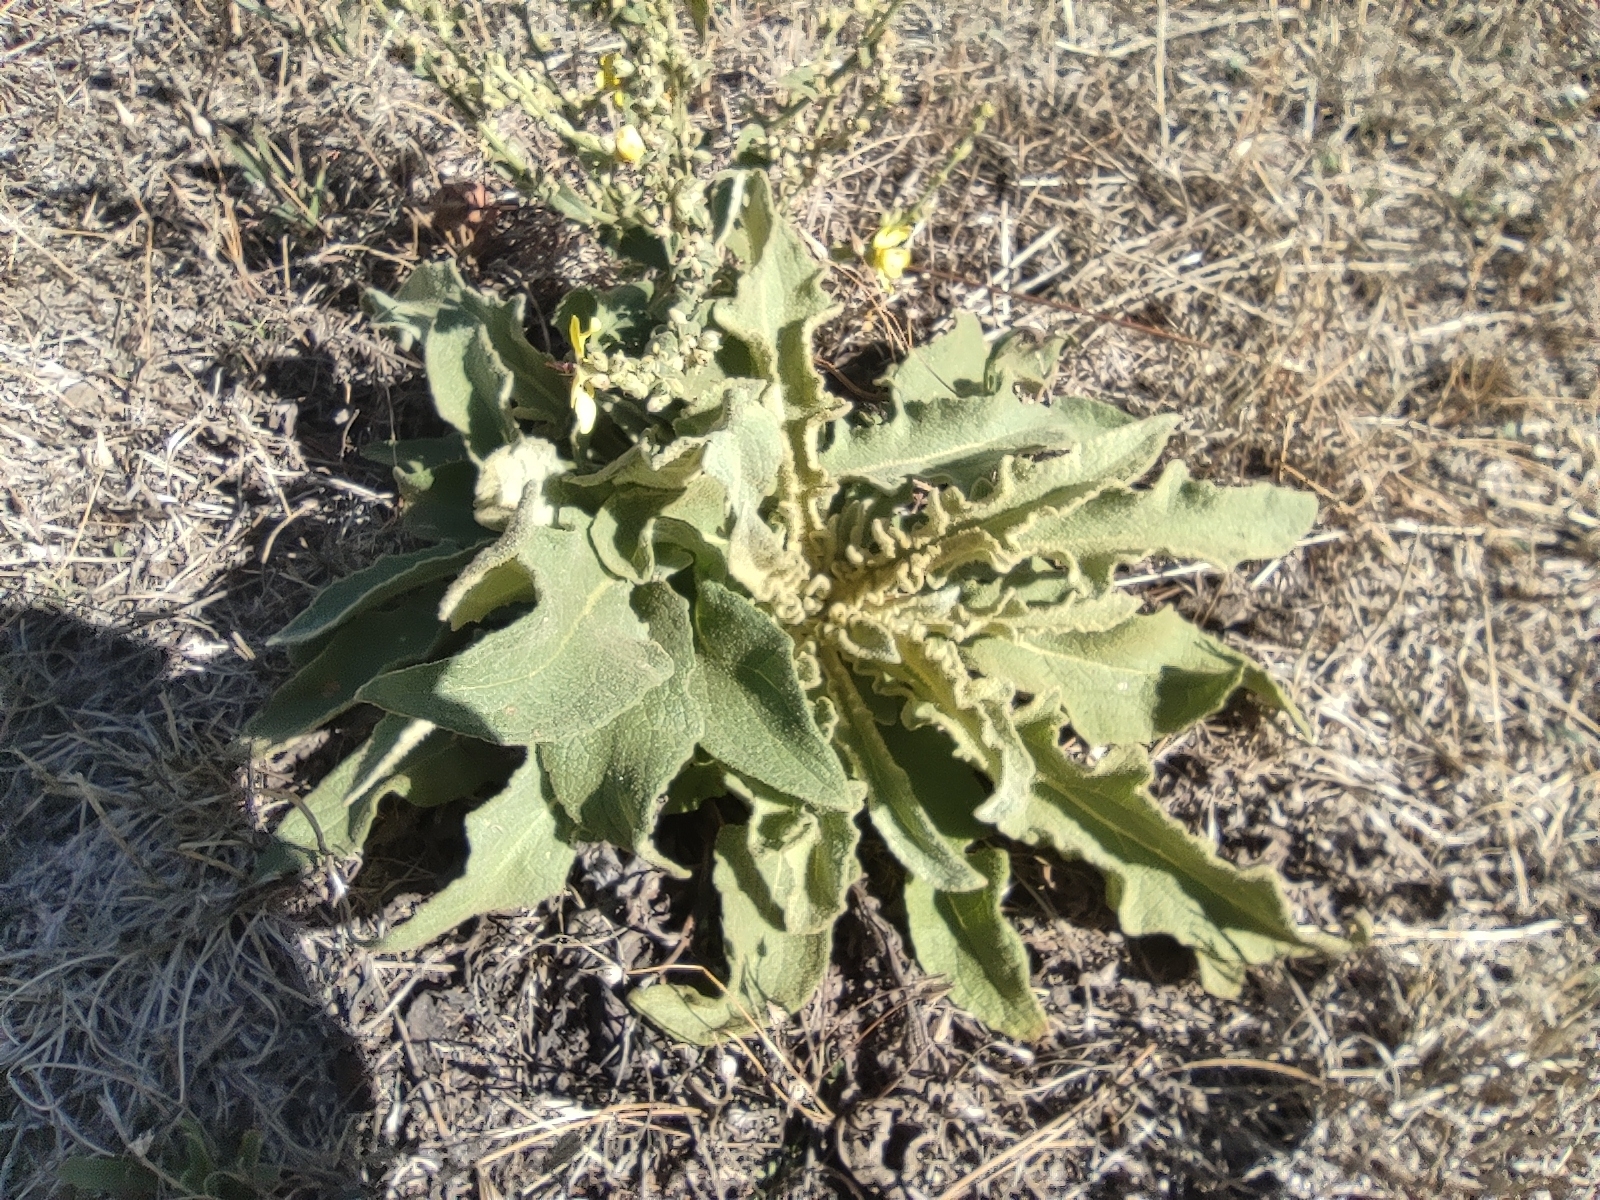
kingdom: Plantae
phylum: Tracheophyta
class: Magnoliopsida
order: Lamiales
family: Scrophulariaceae
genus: Verbascum
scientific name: Verbascum sinuatum
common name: Wavyleaf mullein
